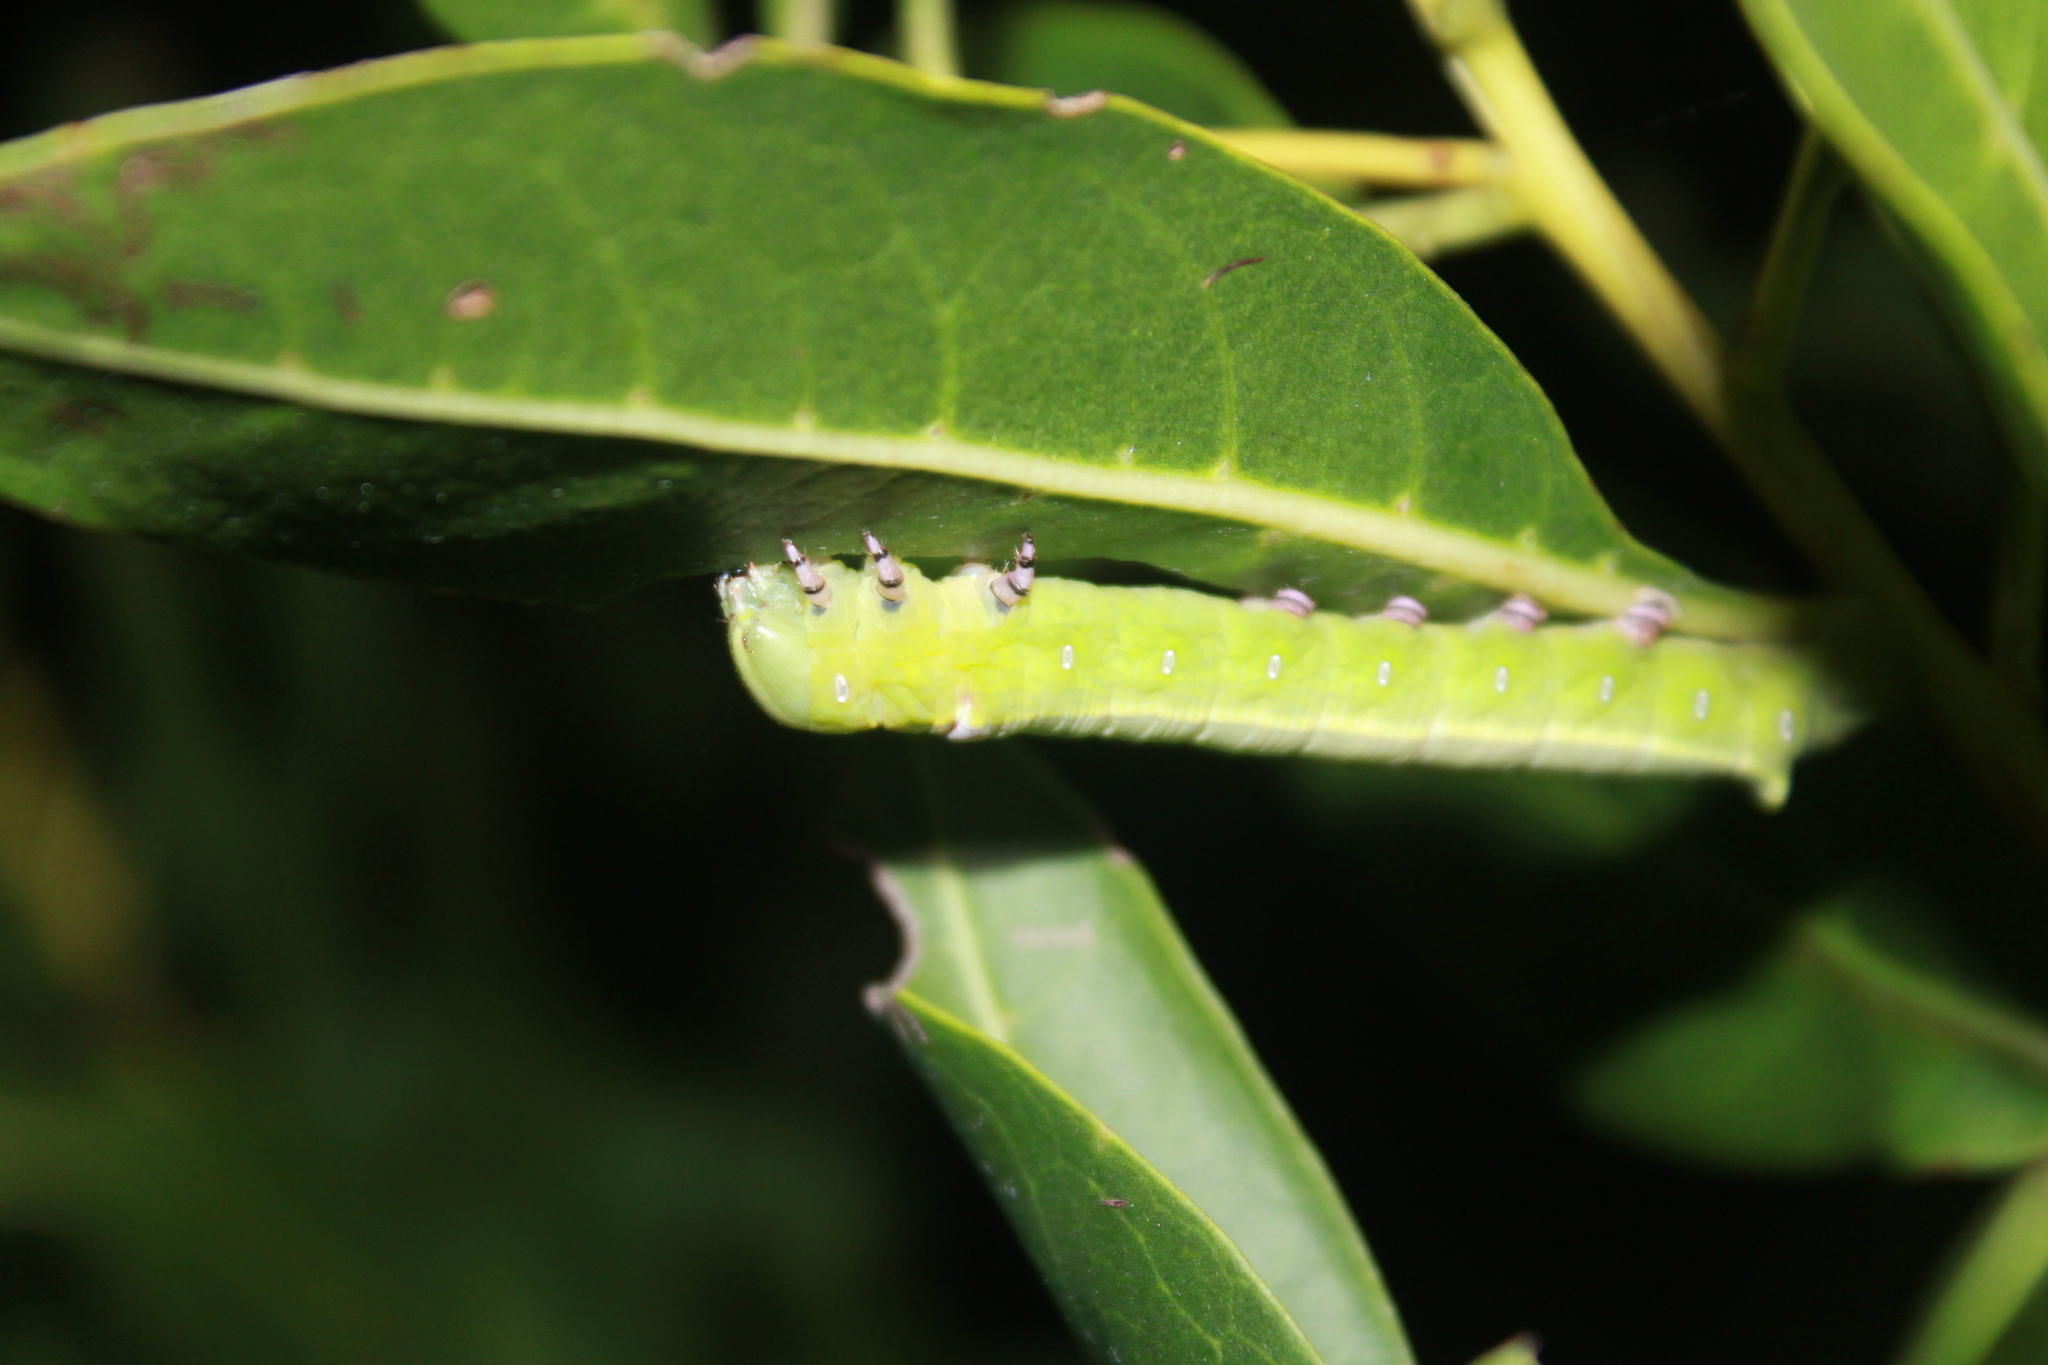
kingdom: Animalia
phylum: Arthropoda
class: Insecta
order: Lepidoptera
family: Sphingidae
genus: Erinnyis
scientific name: Erinnyis ello
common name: Ello sphinx
